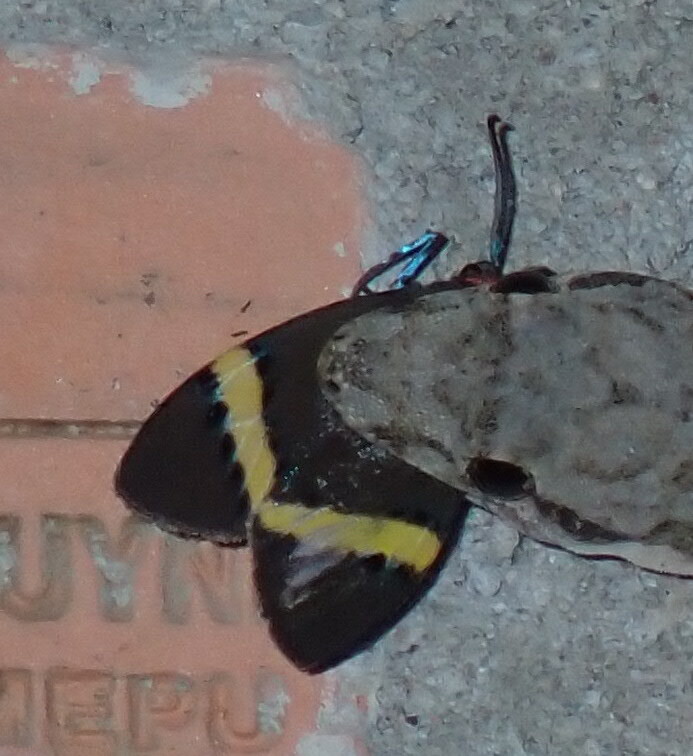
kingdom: Animalia
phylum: Arthropoda
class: Insecta
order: Lepidoptera
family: Zygaenidae
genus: Pidorus
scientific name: Pidorus gemina
